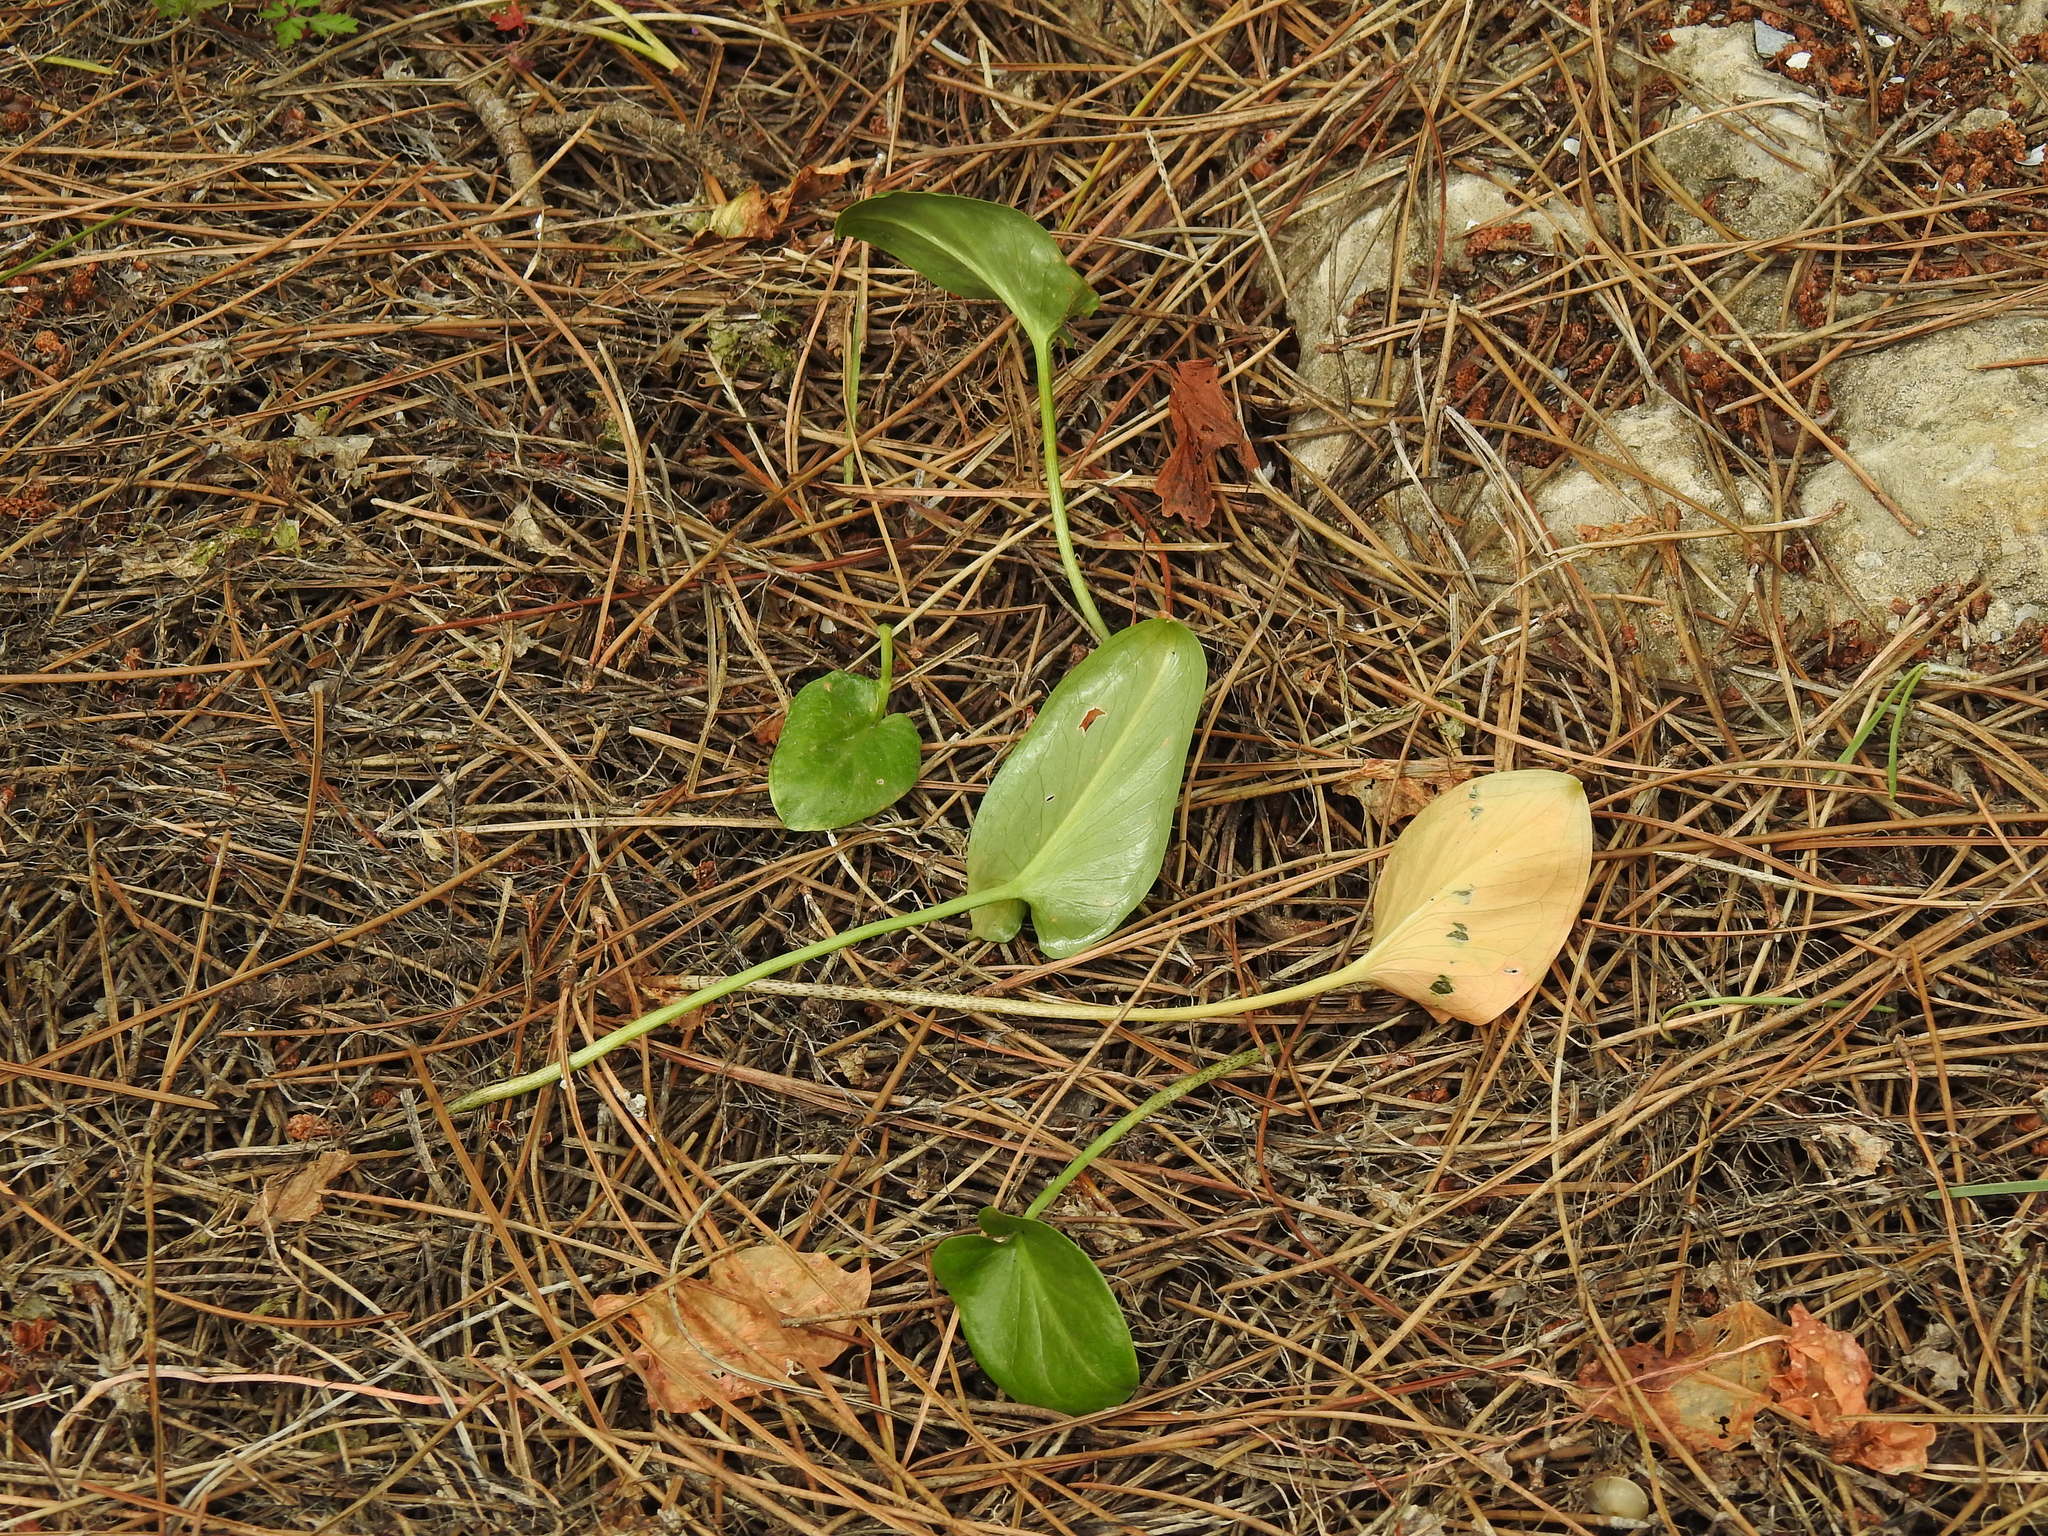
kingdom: Plantae
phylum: Tracheophyta
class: Liliopsida
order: Alismatales
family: Araceae
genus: Arisarum
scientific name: Arisarum simorrhinum
